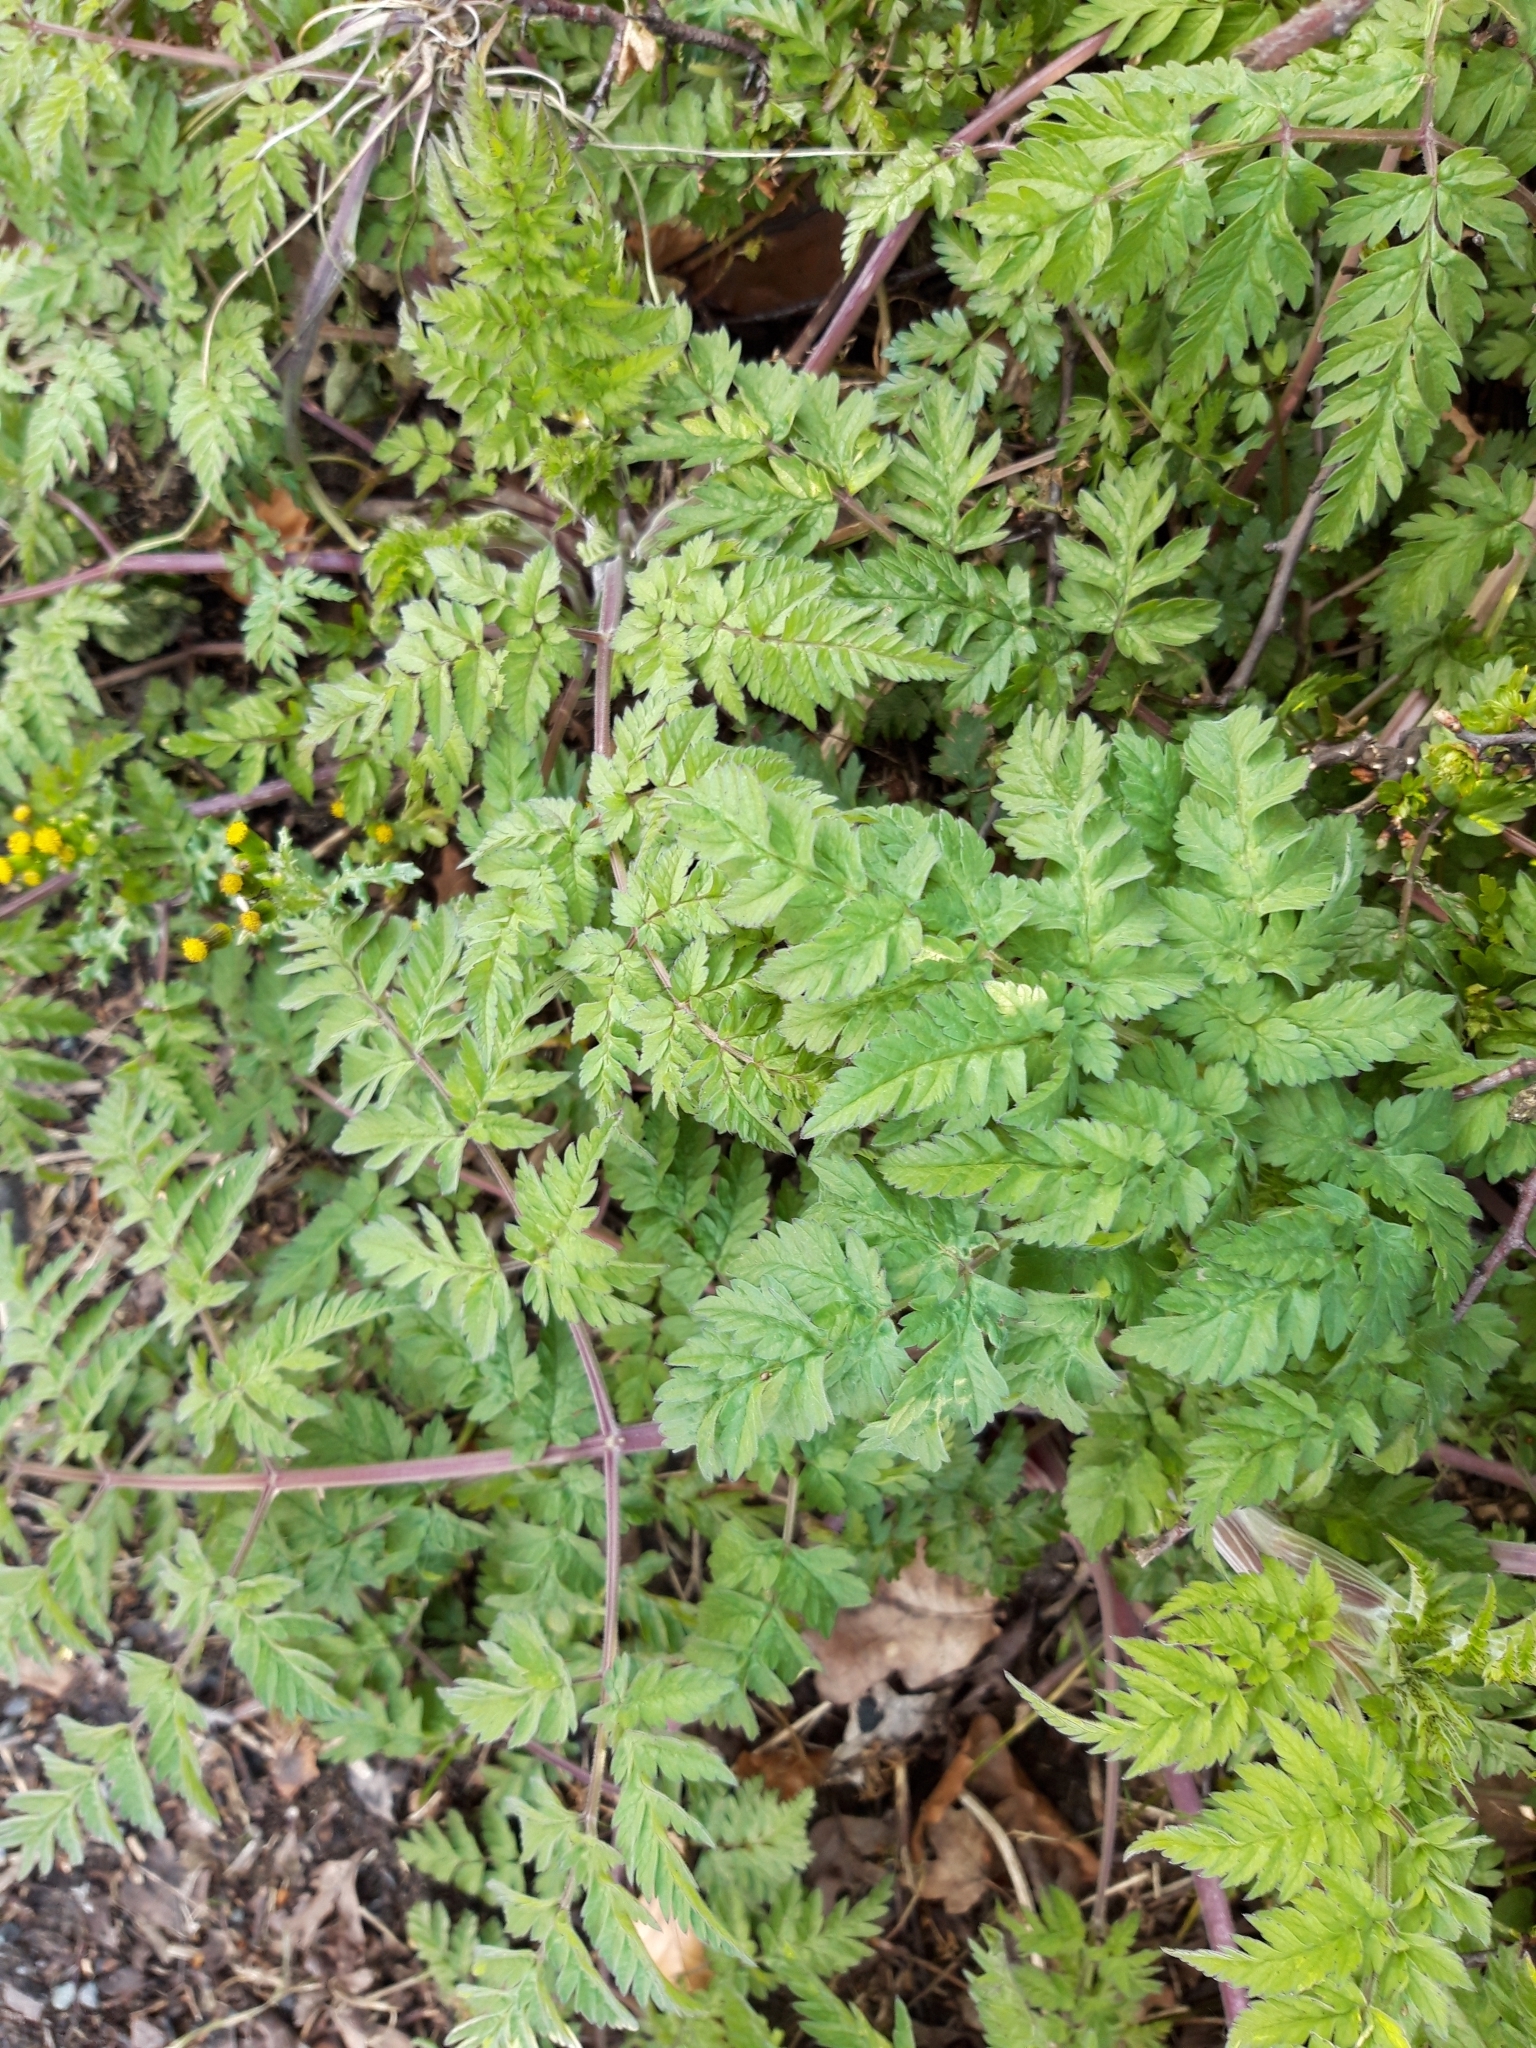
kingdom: Plantae
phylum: Tracheophyta
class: Magnoliopsida
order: Apiales
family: Apiaceae
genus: Anthriscus
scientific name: Anthriscus sylvestris
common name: Cow parsley
